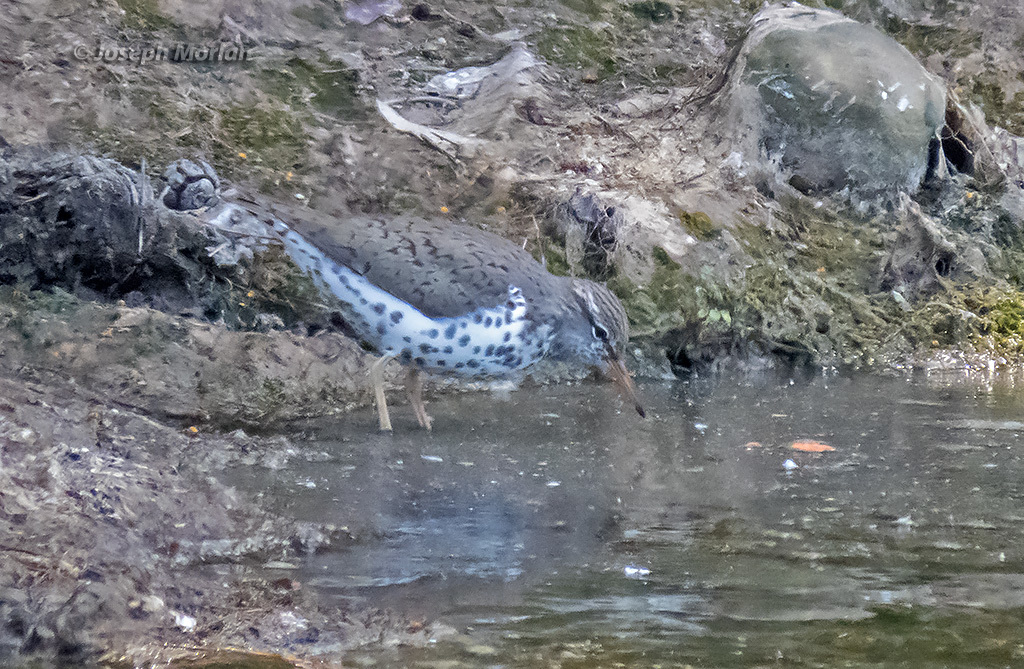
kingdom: Animalia
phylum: Chordata
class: Aves
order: Charadriiformes
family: Scolopacidae
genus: Actitis
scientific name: Actitis macularius
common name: Spotted sandpiper
